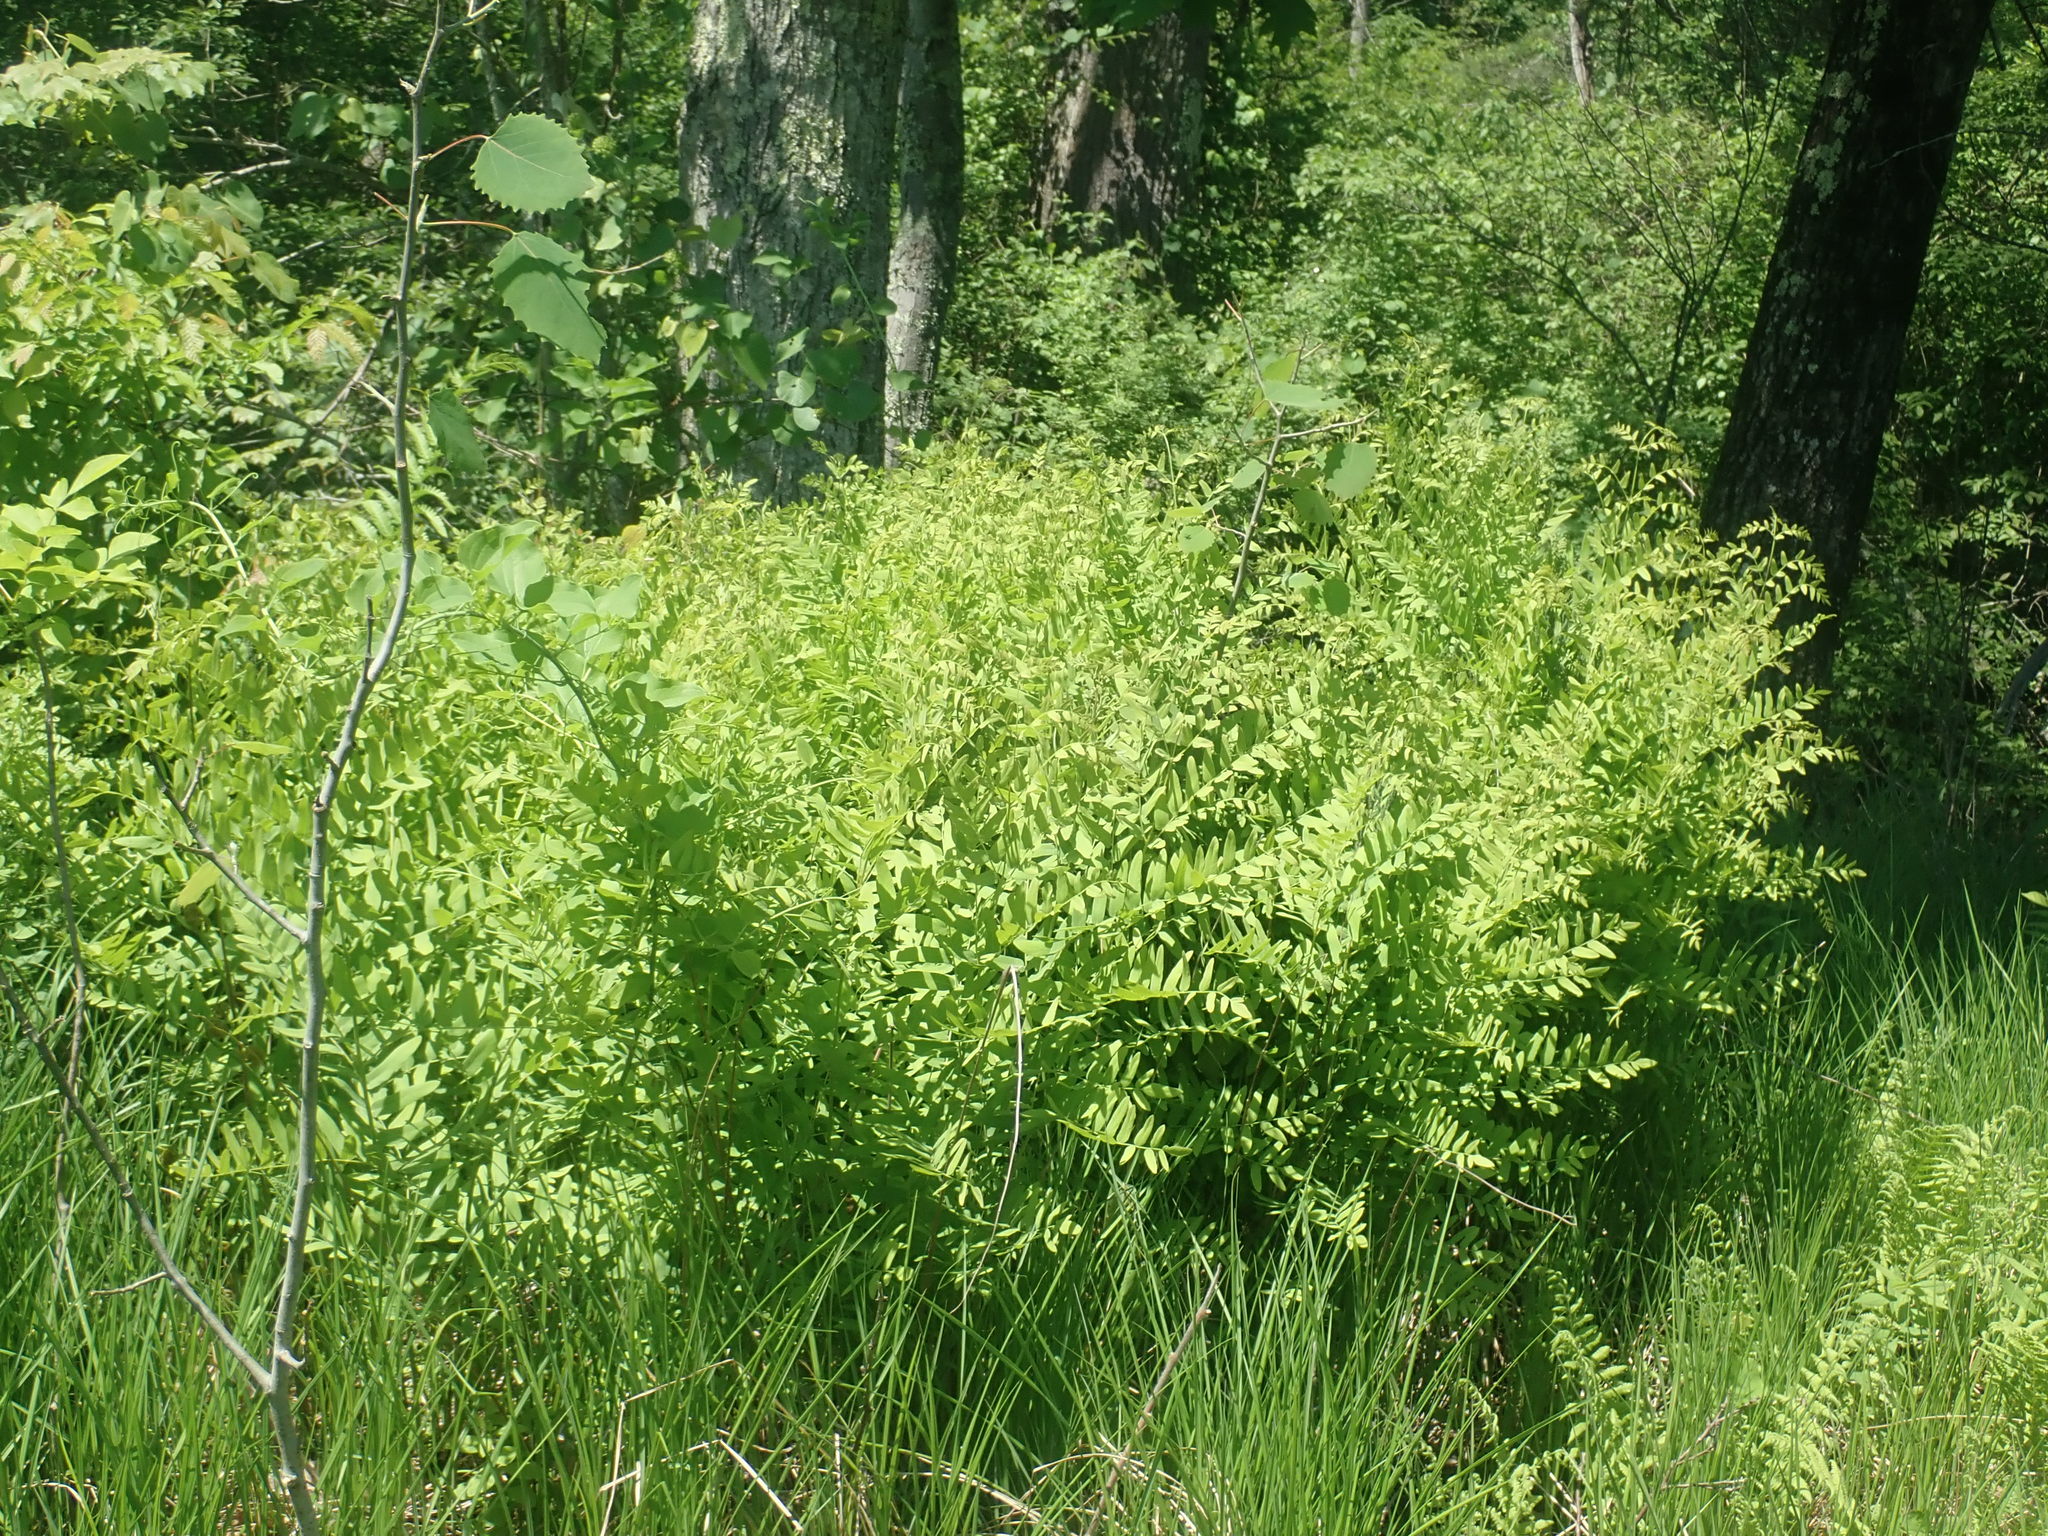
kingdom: Plantae
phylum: Tracheophyta
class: Polypodiopsida
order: Osmundales
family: Osmundaceae
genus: Osmunda
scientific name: Osmunda spectabilis
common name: American royal fern
